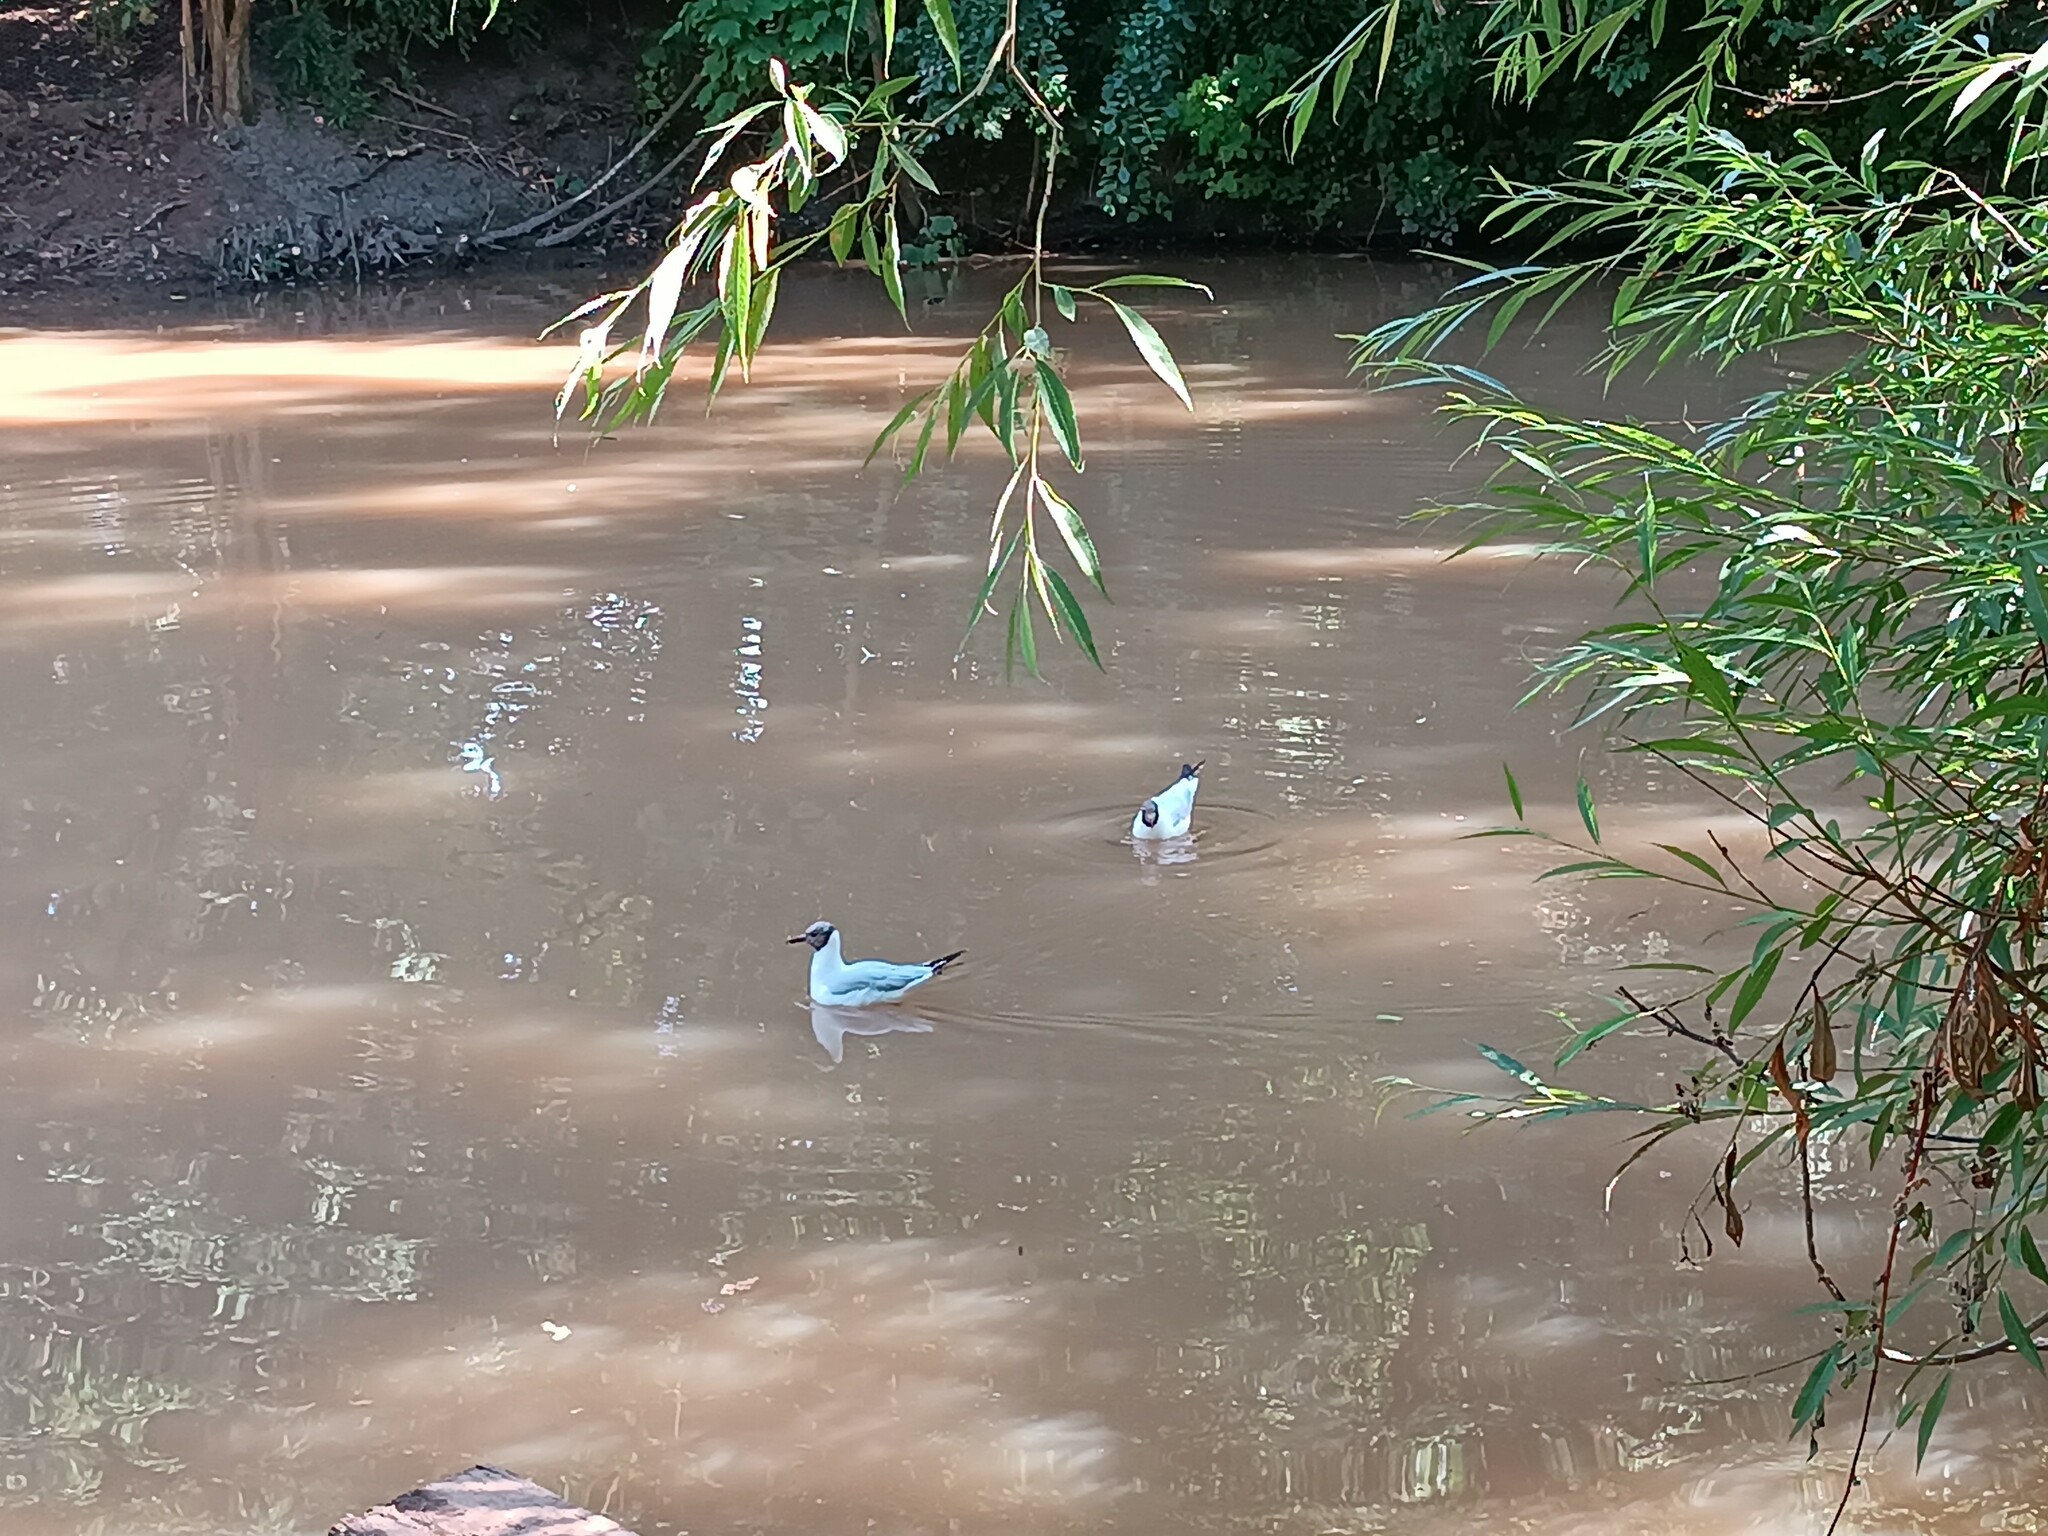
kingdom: Animalia
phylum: Chordata
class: Aves
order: Charadriiformes
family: Laridae
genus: Chroicocephalus
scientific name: Chroicocephalus ridibundus
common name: Black-headed gull
